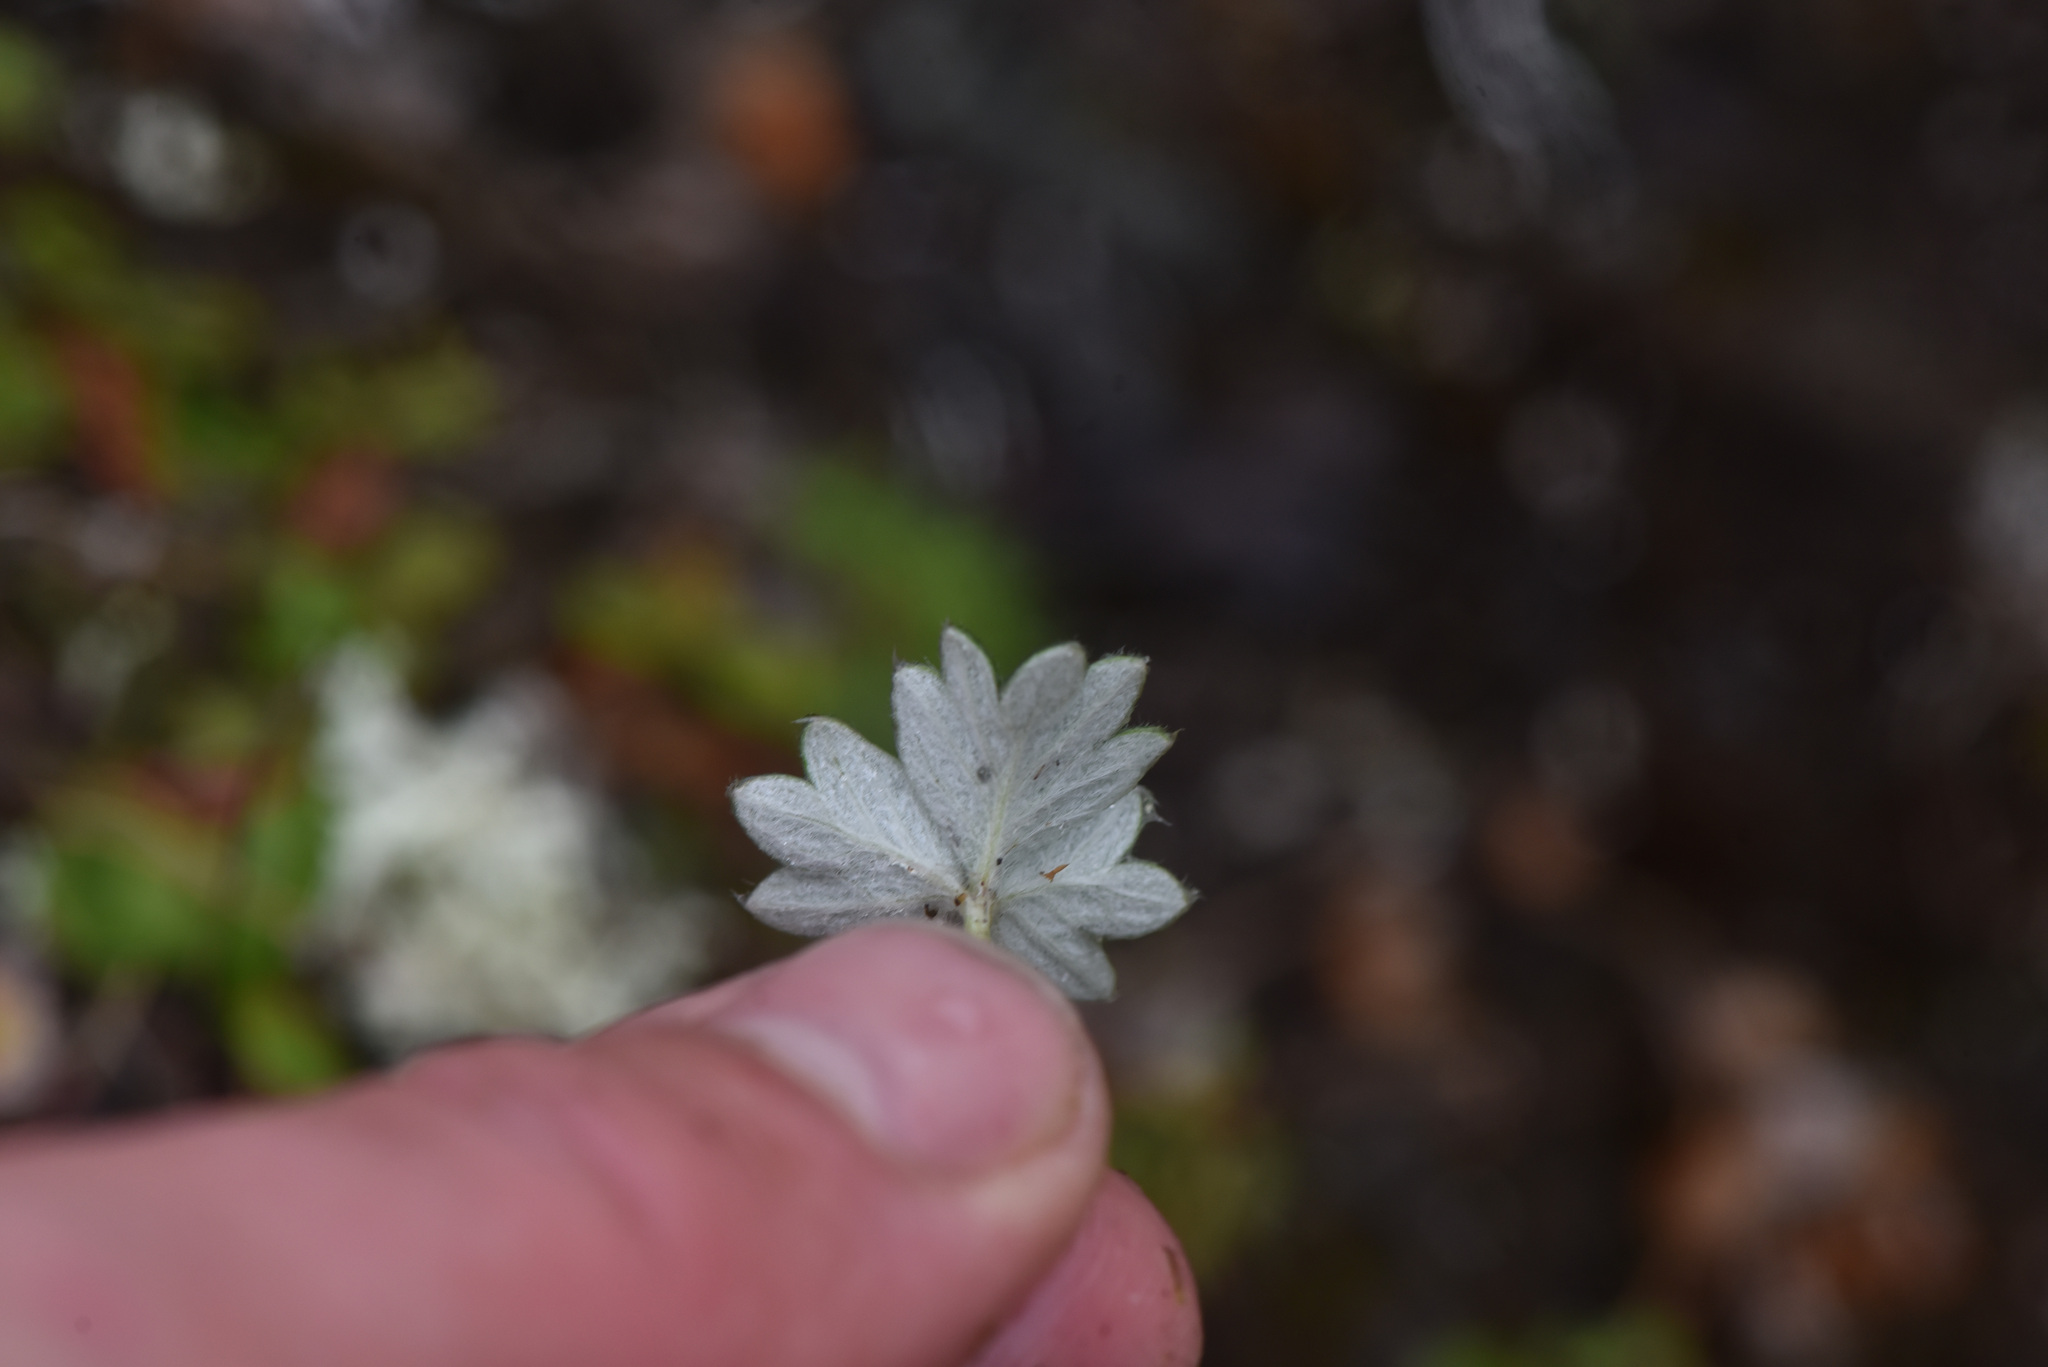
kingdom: Plantae
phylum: Tracheophyta
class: Magnoliopsida
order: Rosales
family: Rosaceae
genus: Potentilla
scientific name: Potentilla subvahliana
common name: Far northern cinquefoil
